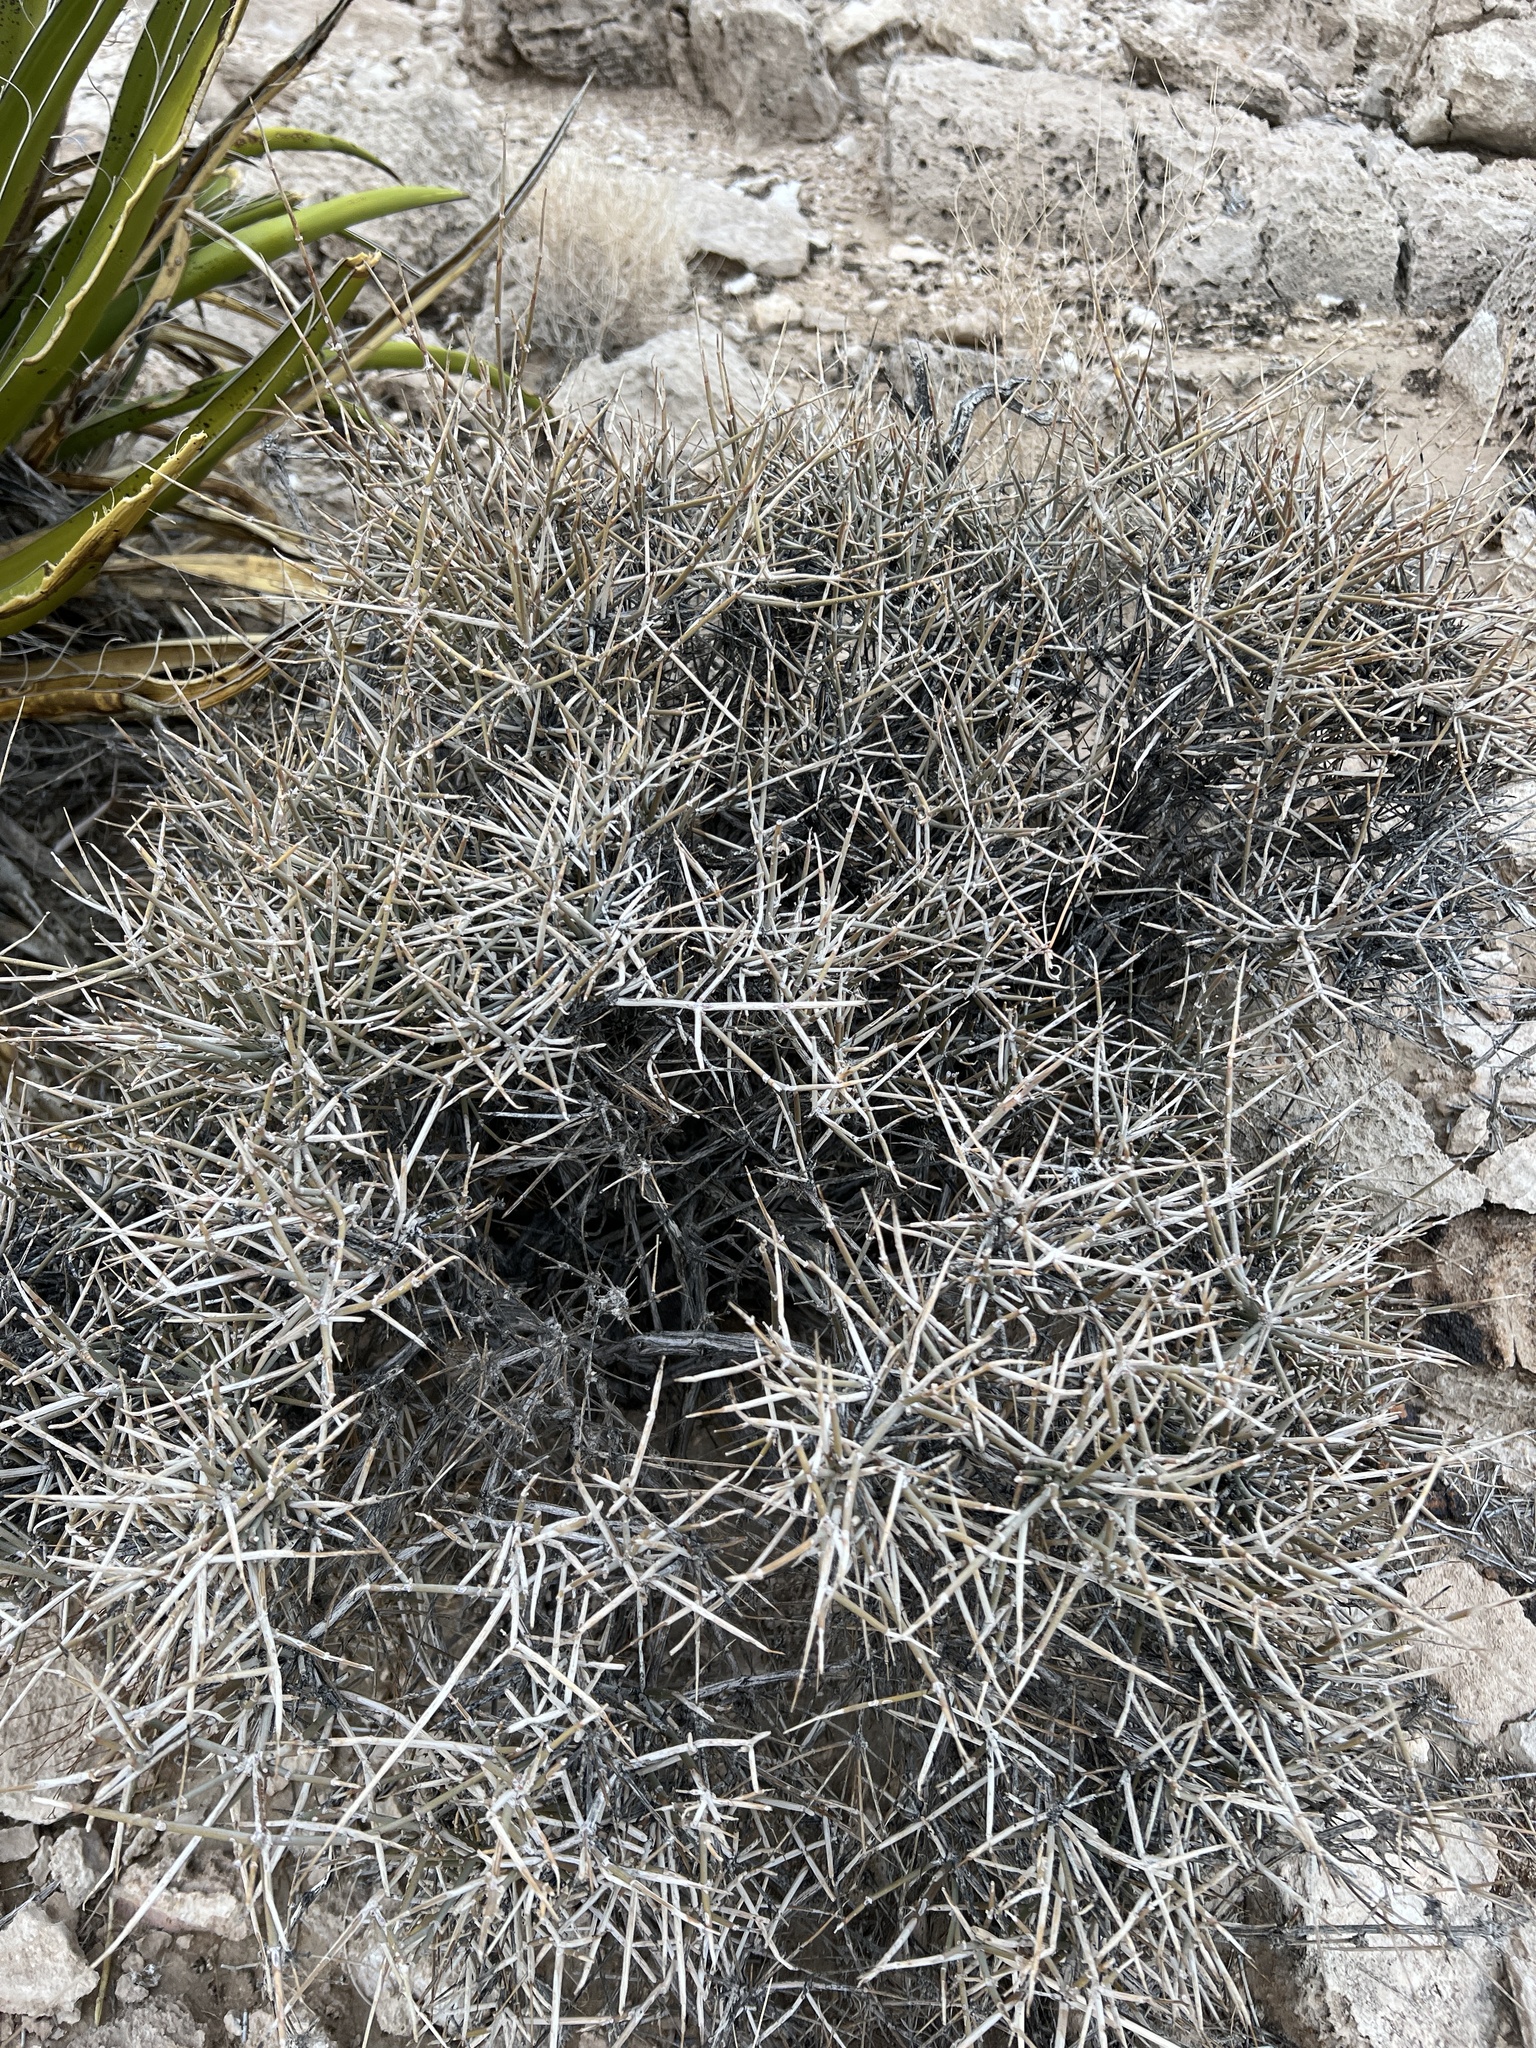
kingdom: Plantae
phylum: Tracheophyta
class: Gnetopsida
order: Ephedrales
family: Ephedraceae
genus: Ephedra
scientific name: Ephedra nevadensis
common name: Gray ephedra
